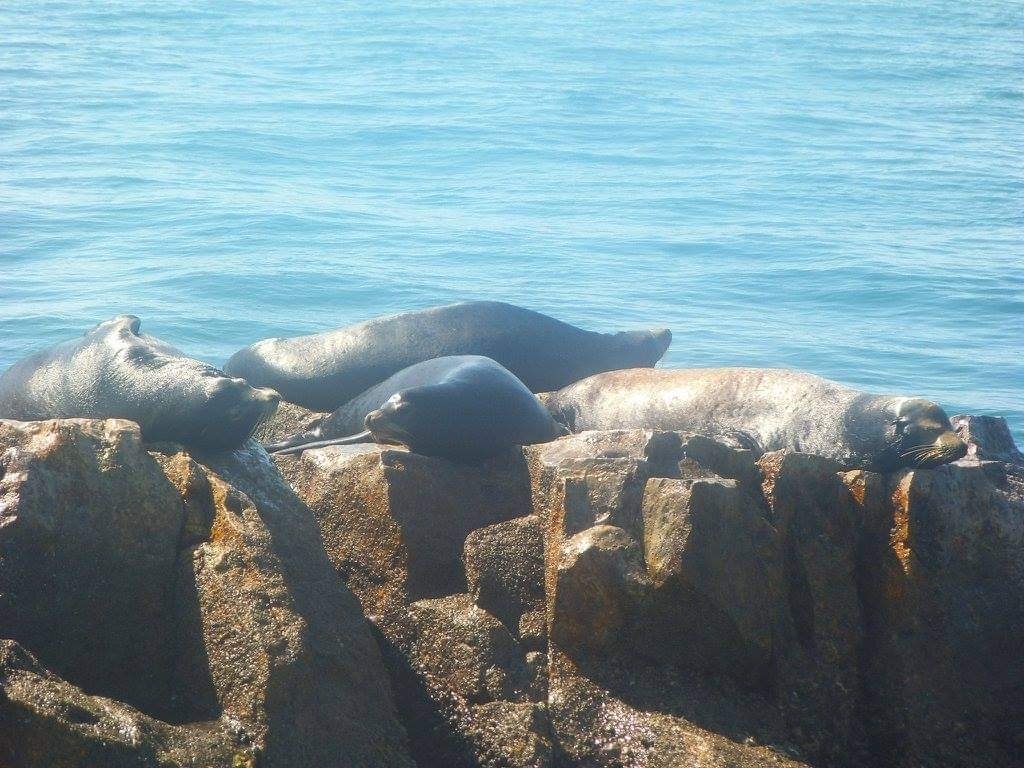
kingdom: Animalia
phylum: Chordata
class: Mammalia
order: Carnivora
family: Otariidae
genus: Zalophus
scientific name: Zalophus californianus
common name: California sea lion
